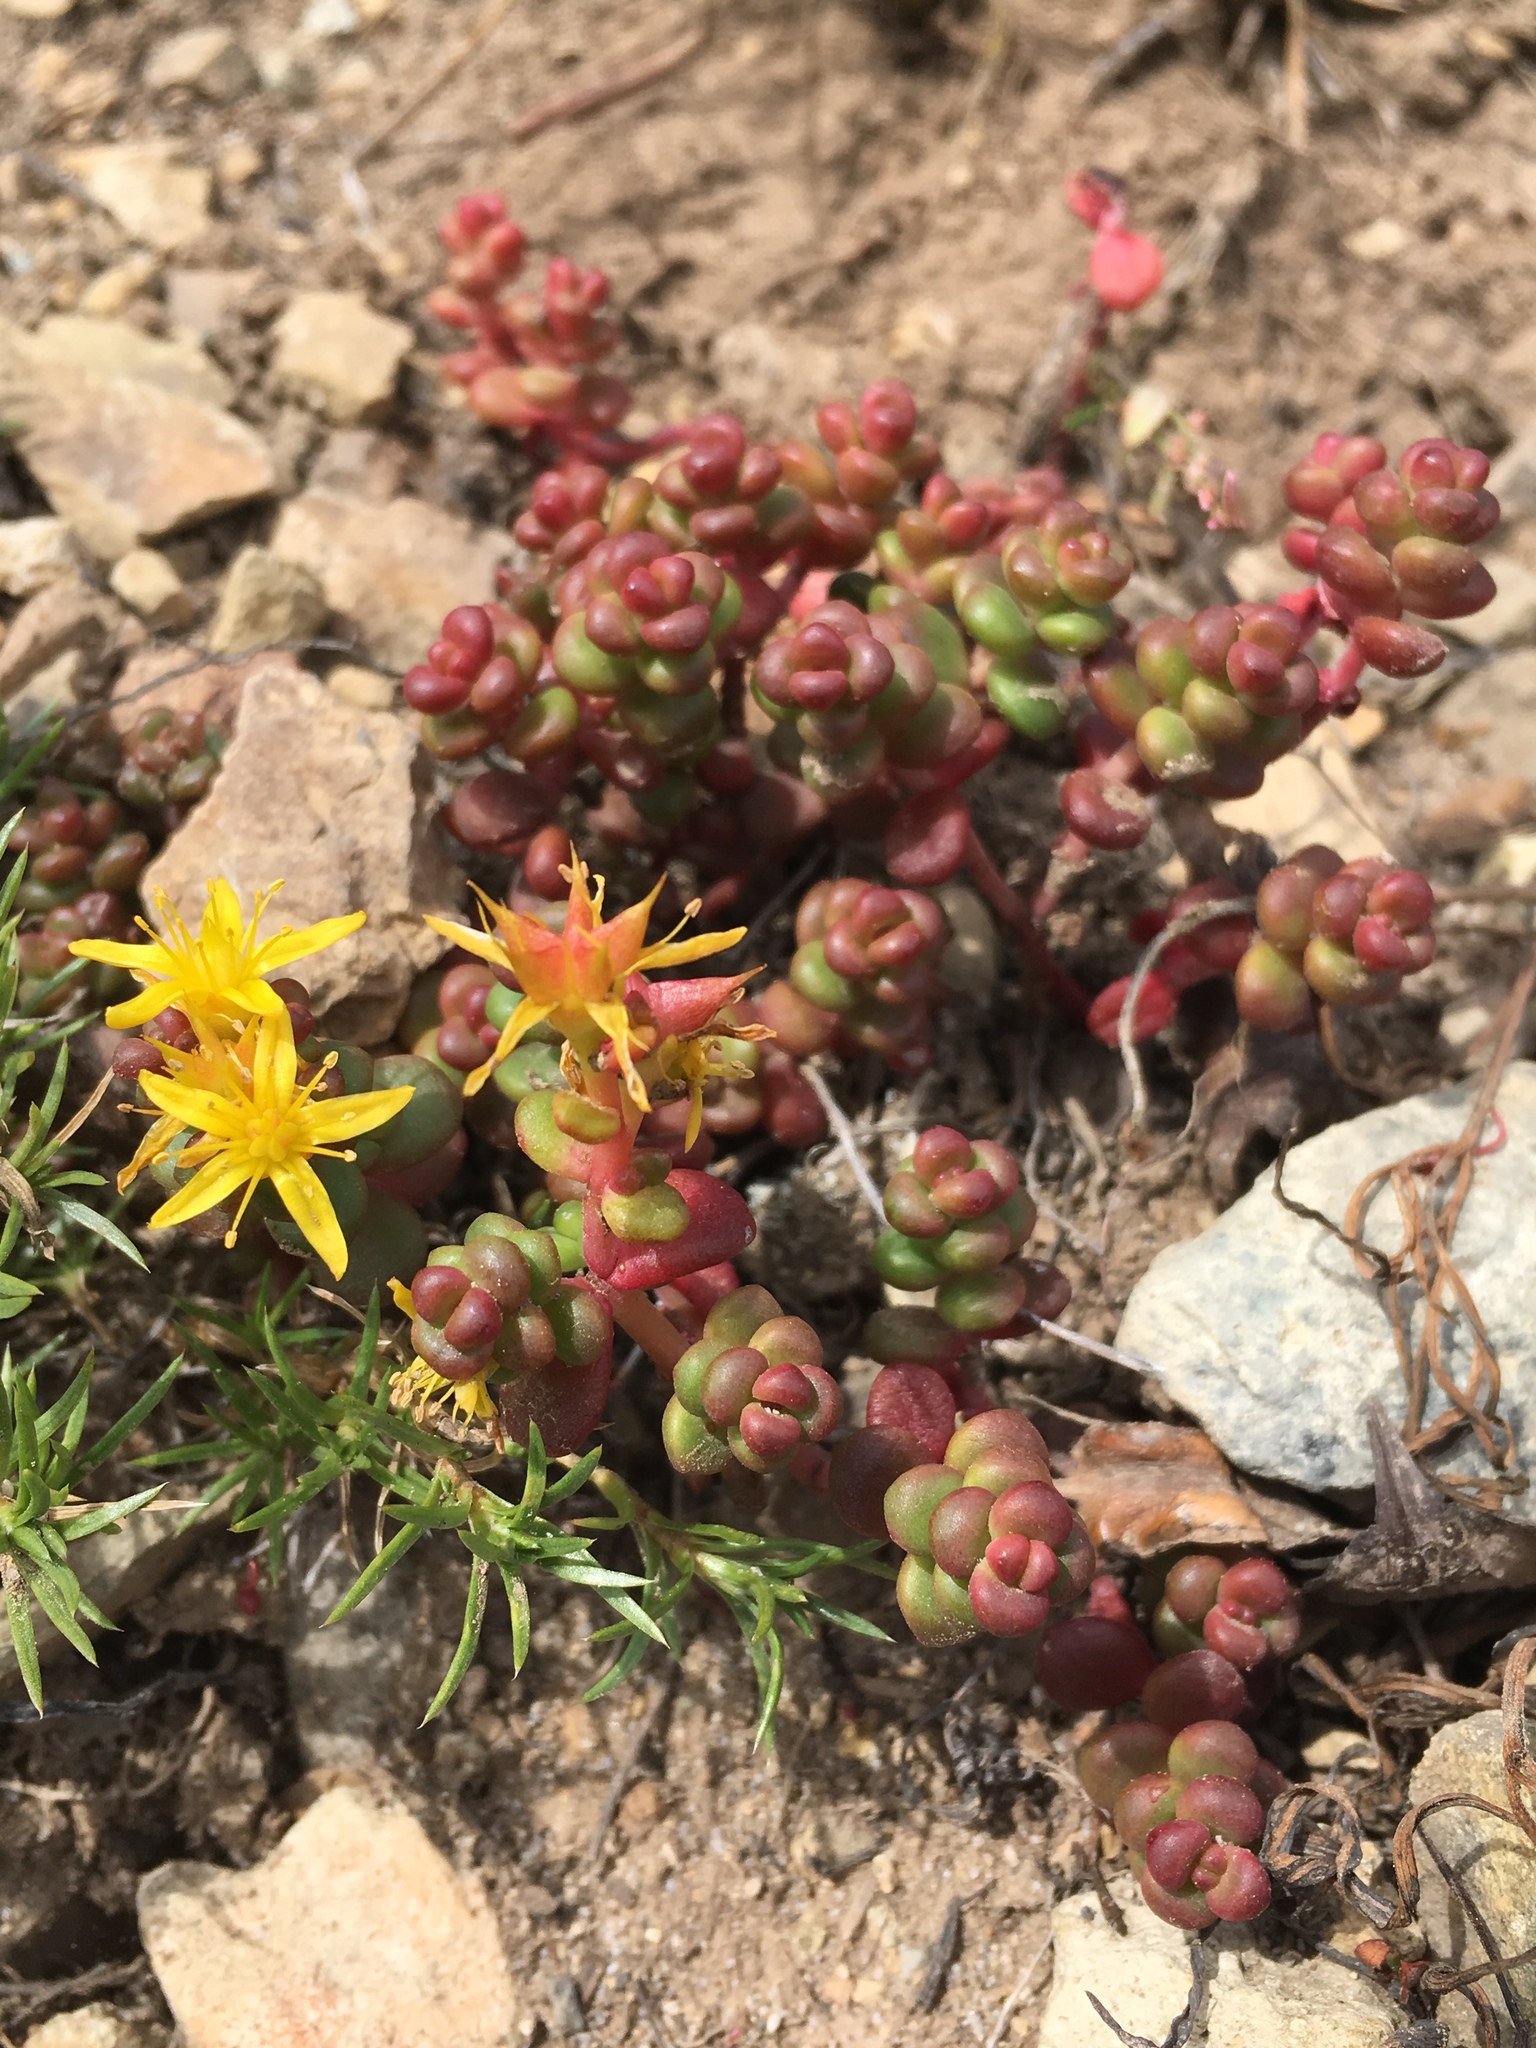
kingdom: Plantae
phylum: Tracheophyta
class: Magnoliopsida
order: Saxifragales
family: Crassulaceae
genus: Sedum
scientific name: Sedum divergens
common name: Cascade stonecrop
